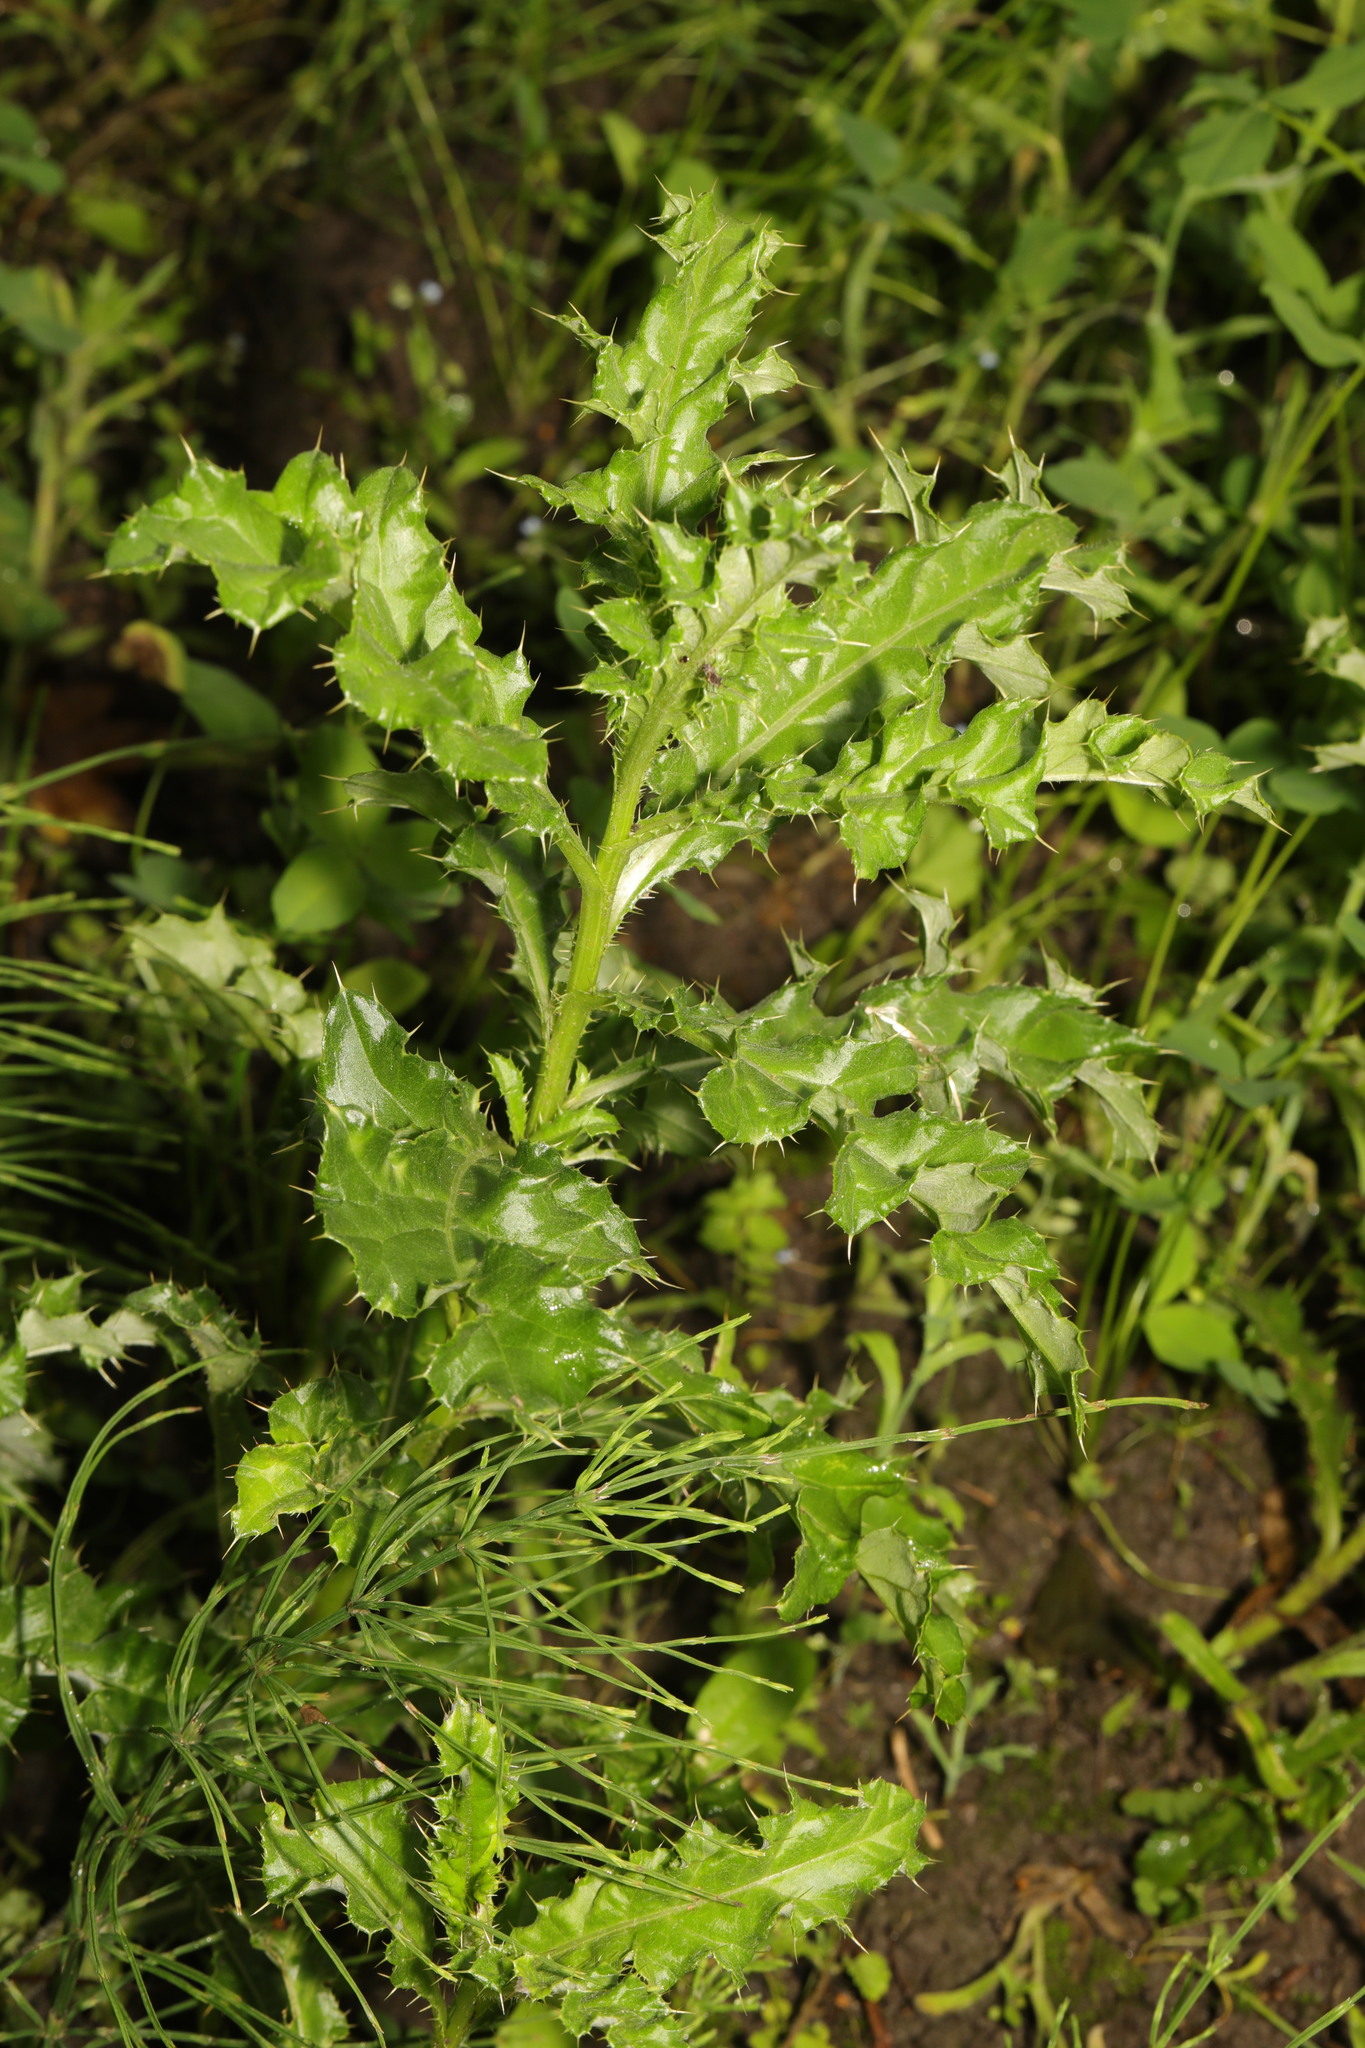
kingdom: Plantae
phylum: Tracheophyta
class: Magnoliopsida
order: Asterales
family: Asteraceae
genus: Cirsium
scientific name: Cirsium arvense
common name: Creeping thistle
